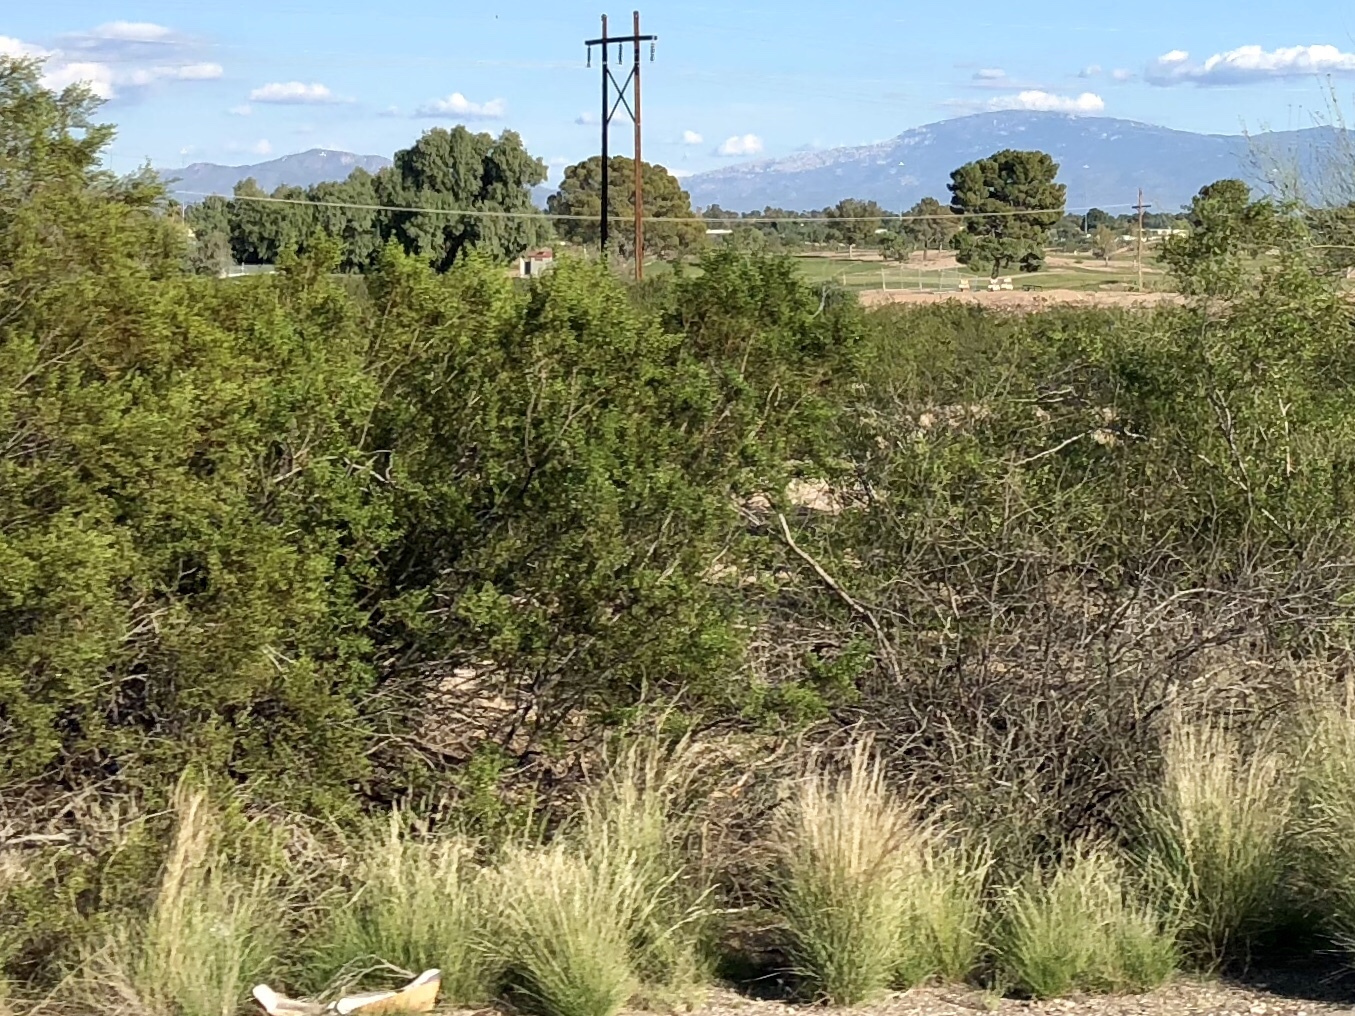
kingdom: Plantae
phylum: Tracheophyta
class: Magnoliopsida
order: Zygophyllales
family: Zygophyllaceae
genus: Larrea
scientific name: Larrea tridentata
